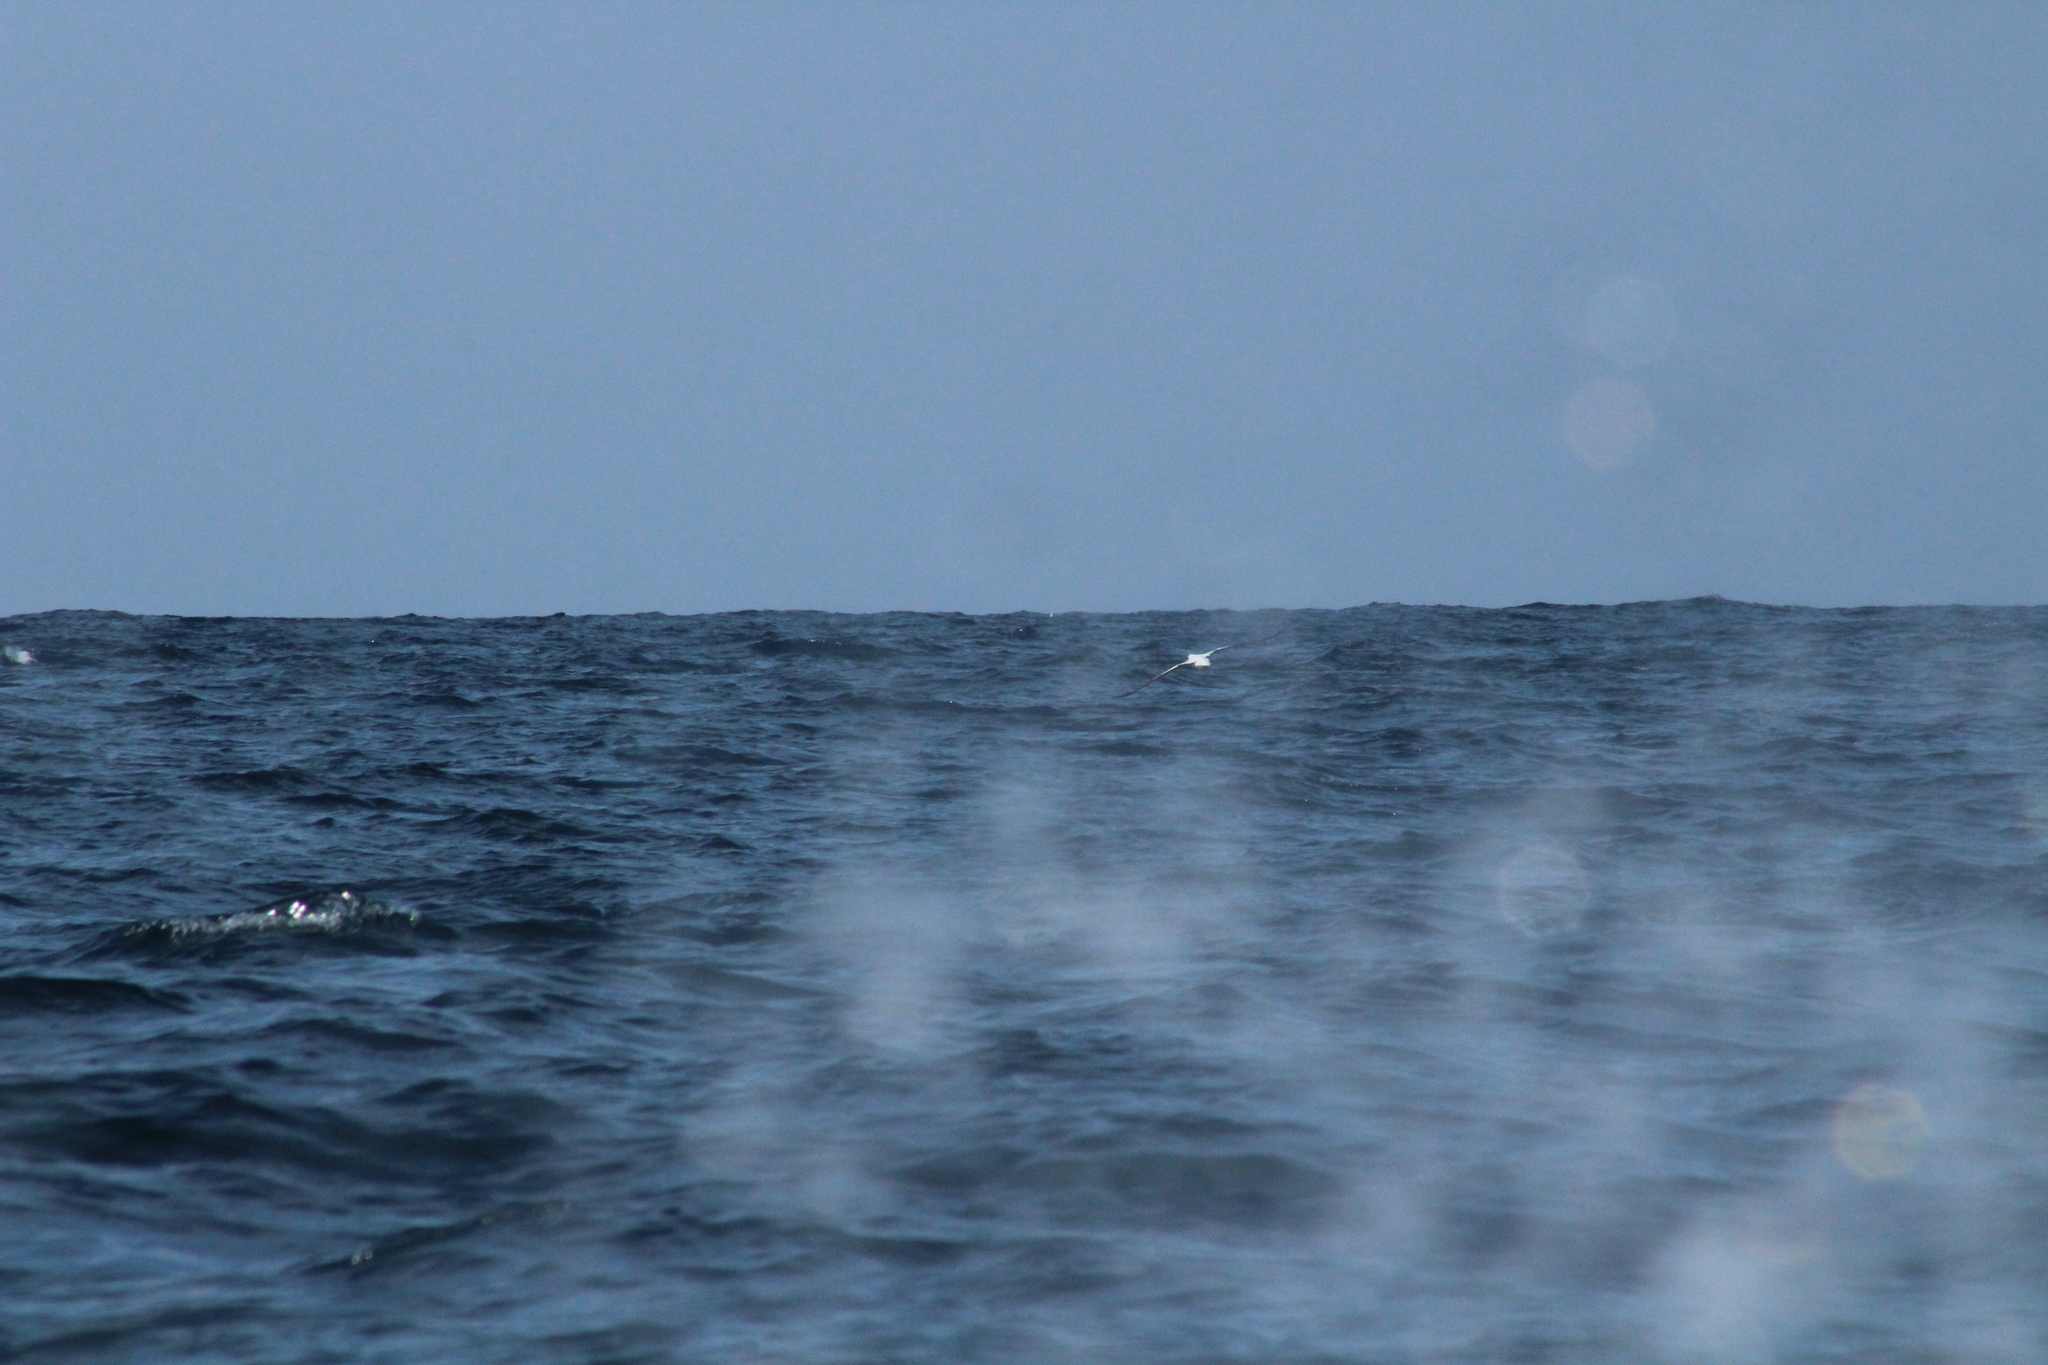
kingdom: Animalia
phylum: Chordata
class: Aves
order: Suliformes
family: Sulidae
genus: Sula
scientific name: Sula granti
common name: Nazca booby
